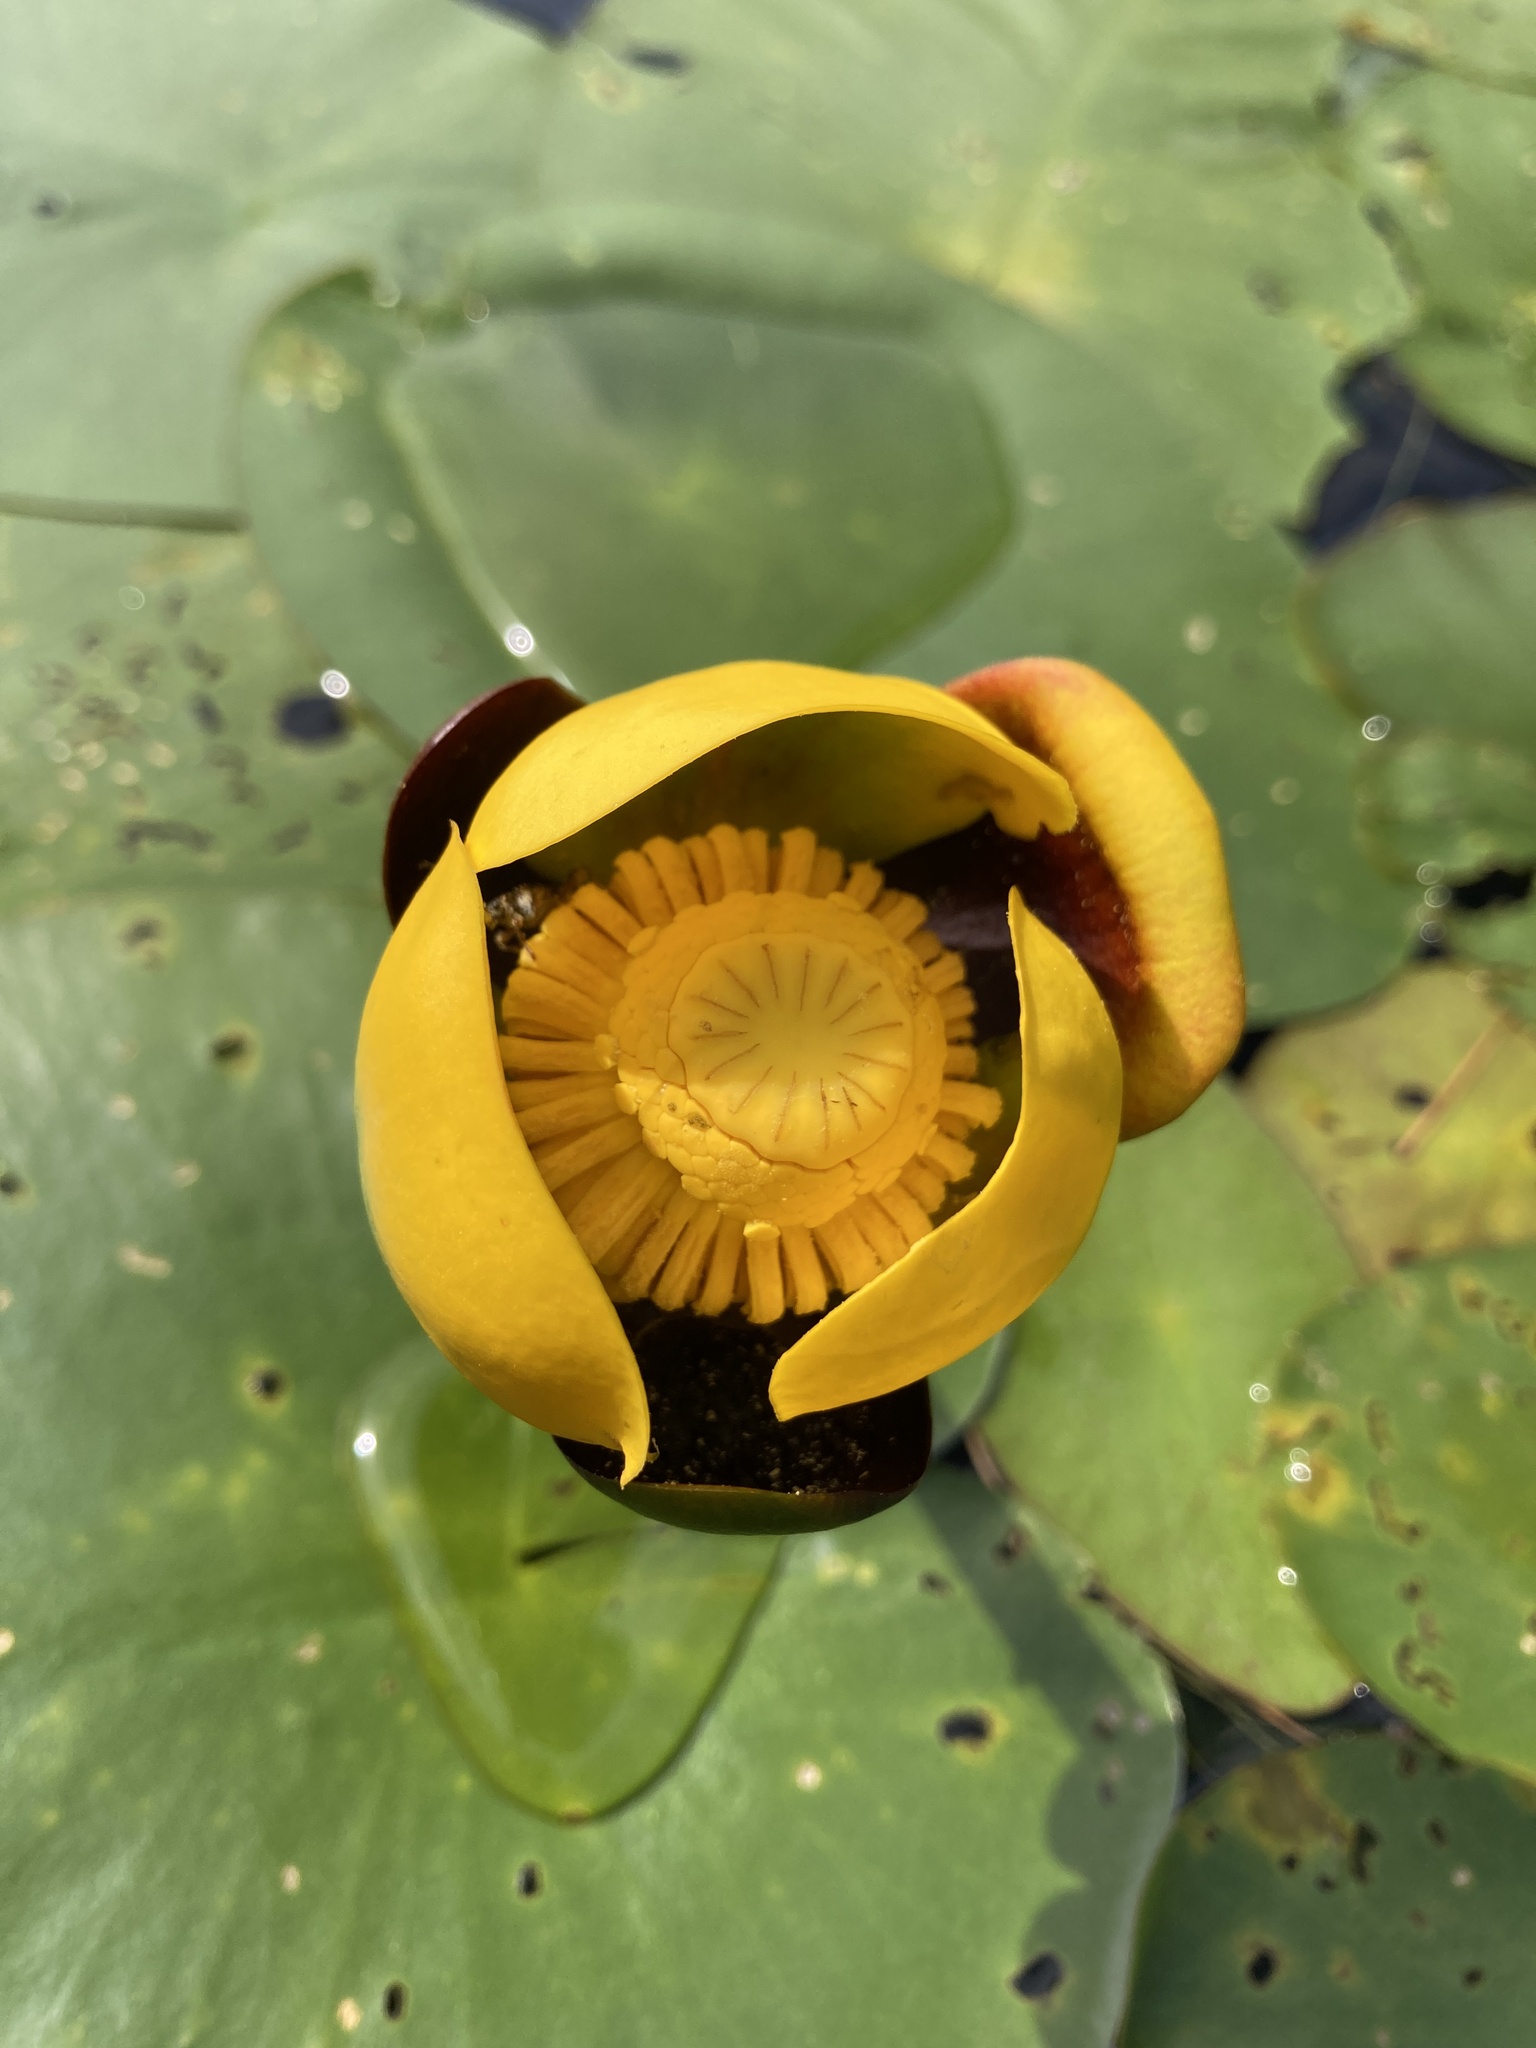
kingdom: Plantae
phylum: Tracheophyta
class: Magnoliopsida
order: Nymphaeales
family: Nymphaeaceae
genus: Nuphar
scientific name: Nuphar variegata
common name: Beaver-root
